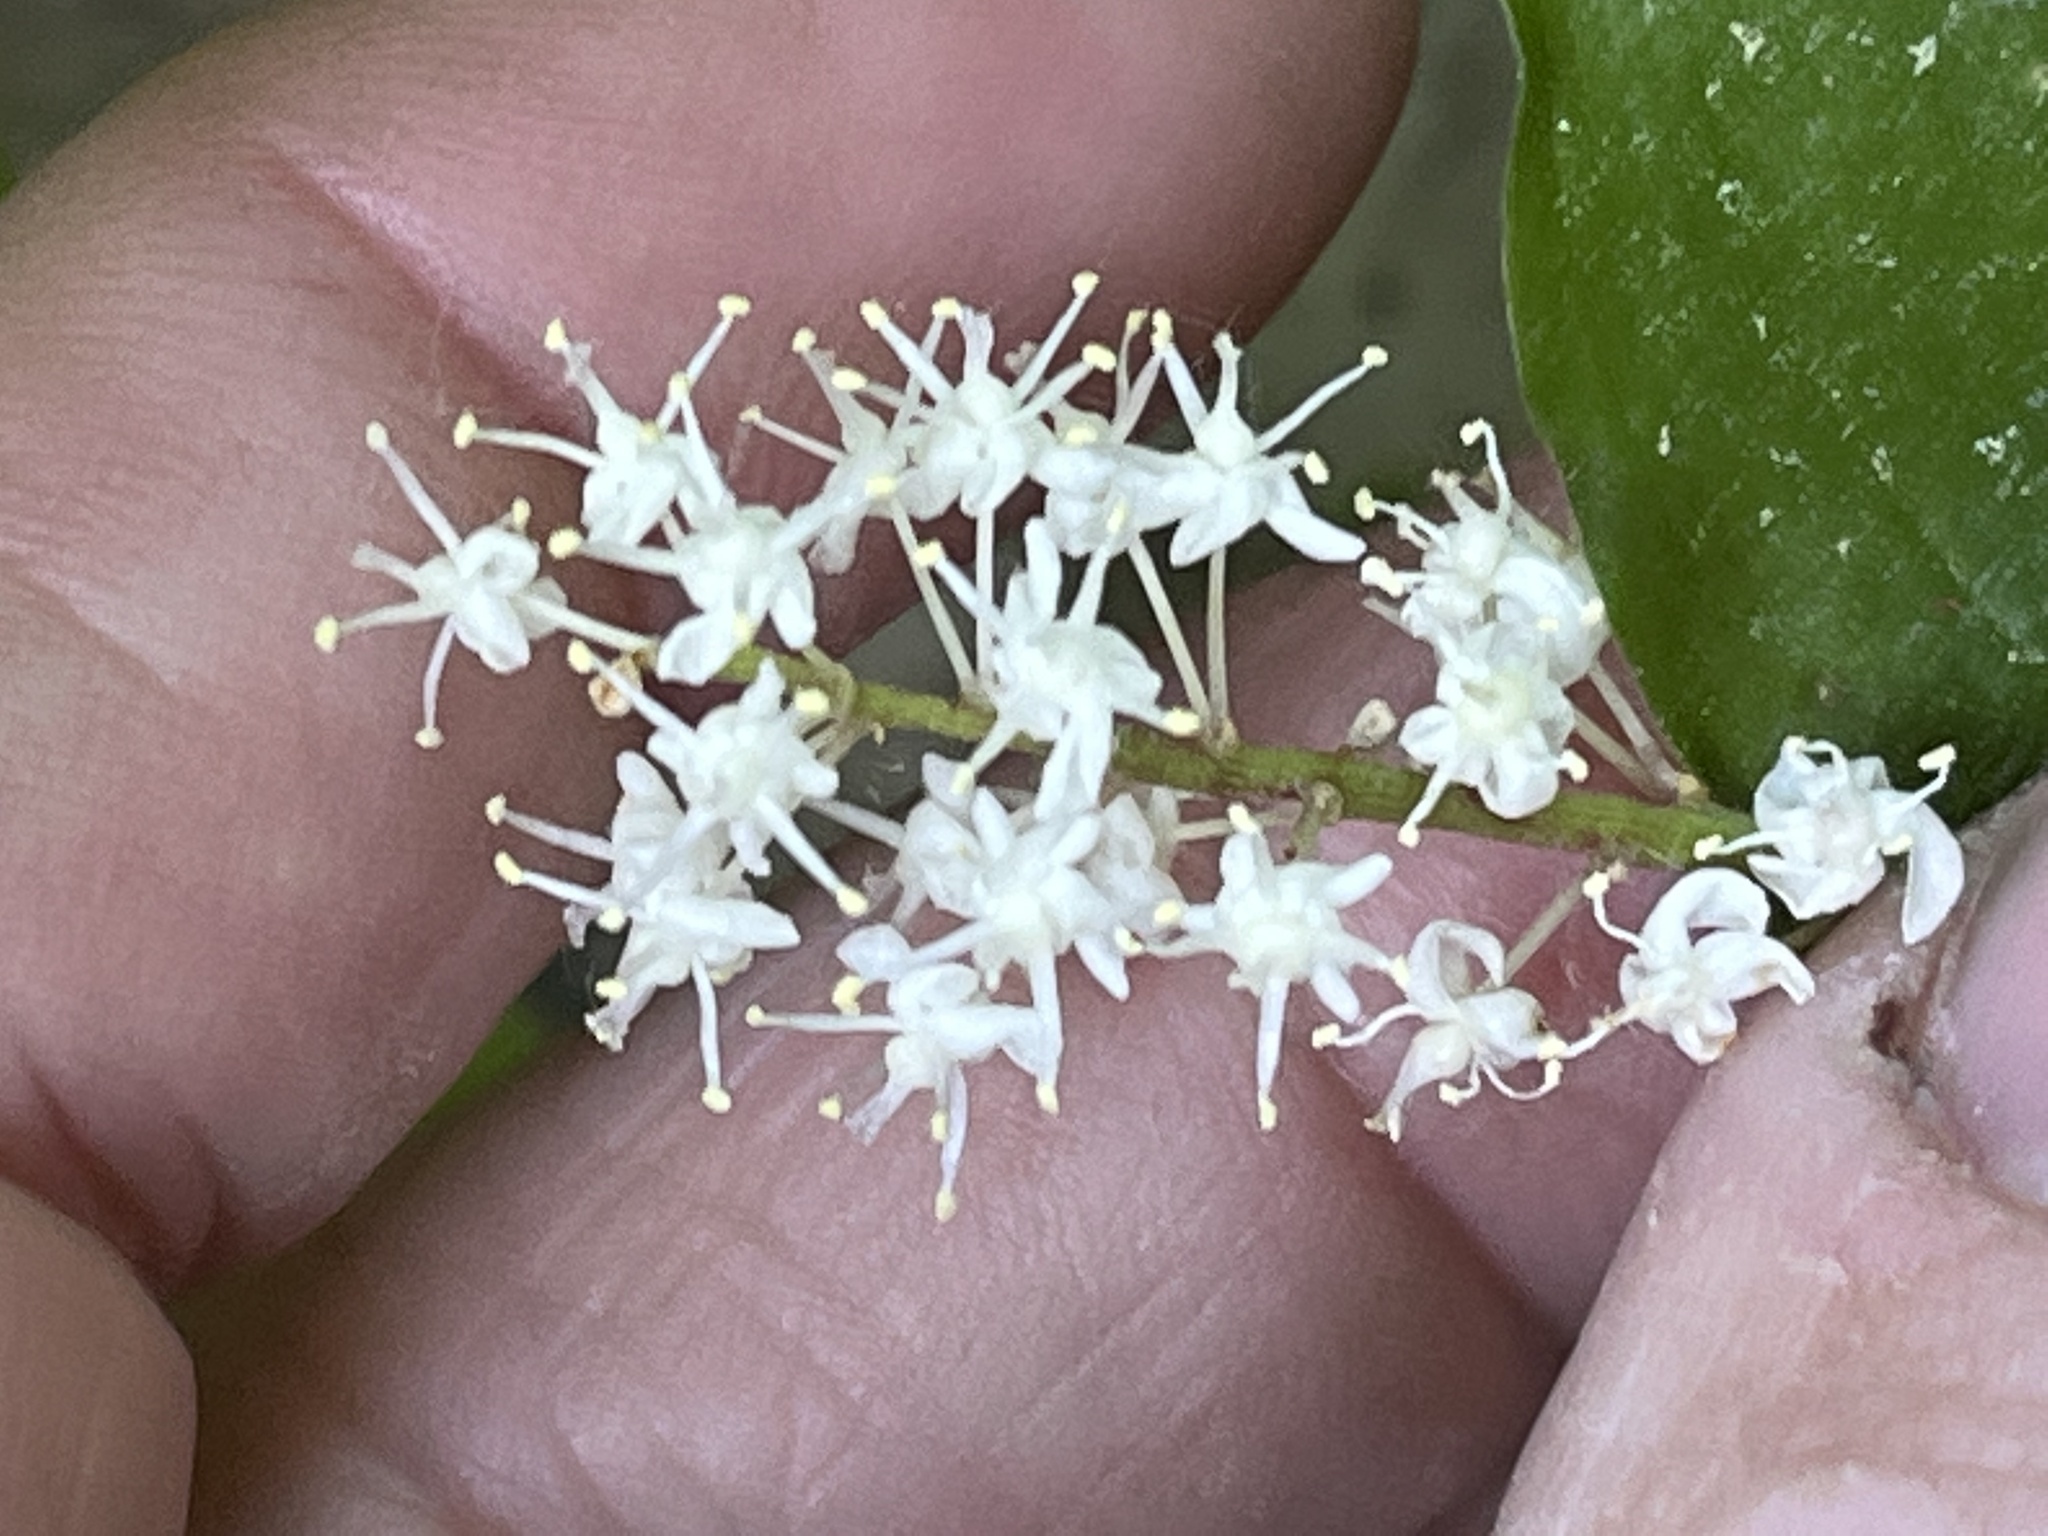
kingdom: Plantae
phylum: Tracheophyta
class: Liliopsida
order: Asparagales
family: Asparagaceae
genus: Maianthemum
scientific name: Maianthemum canadense
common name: False lily-of-the-valley
